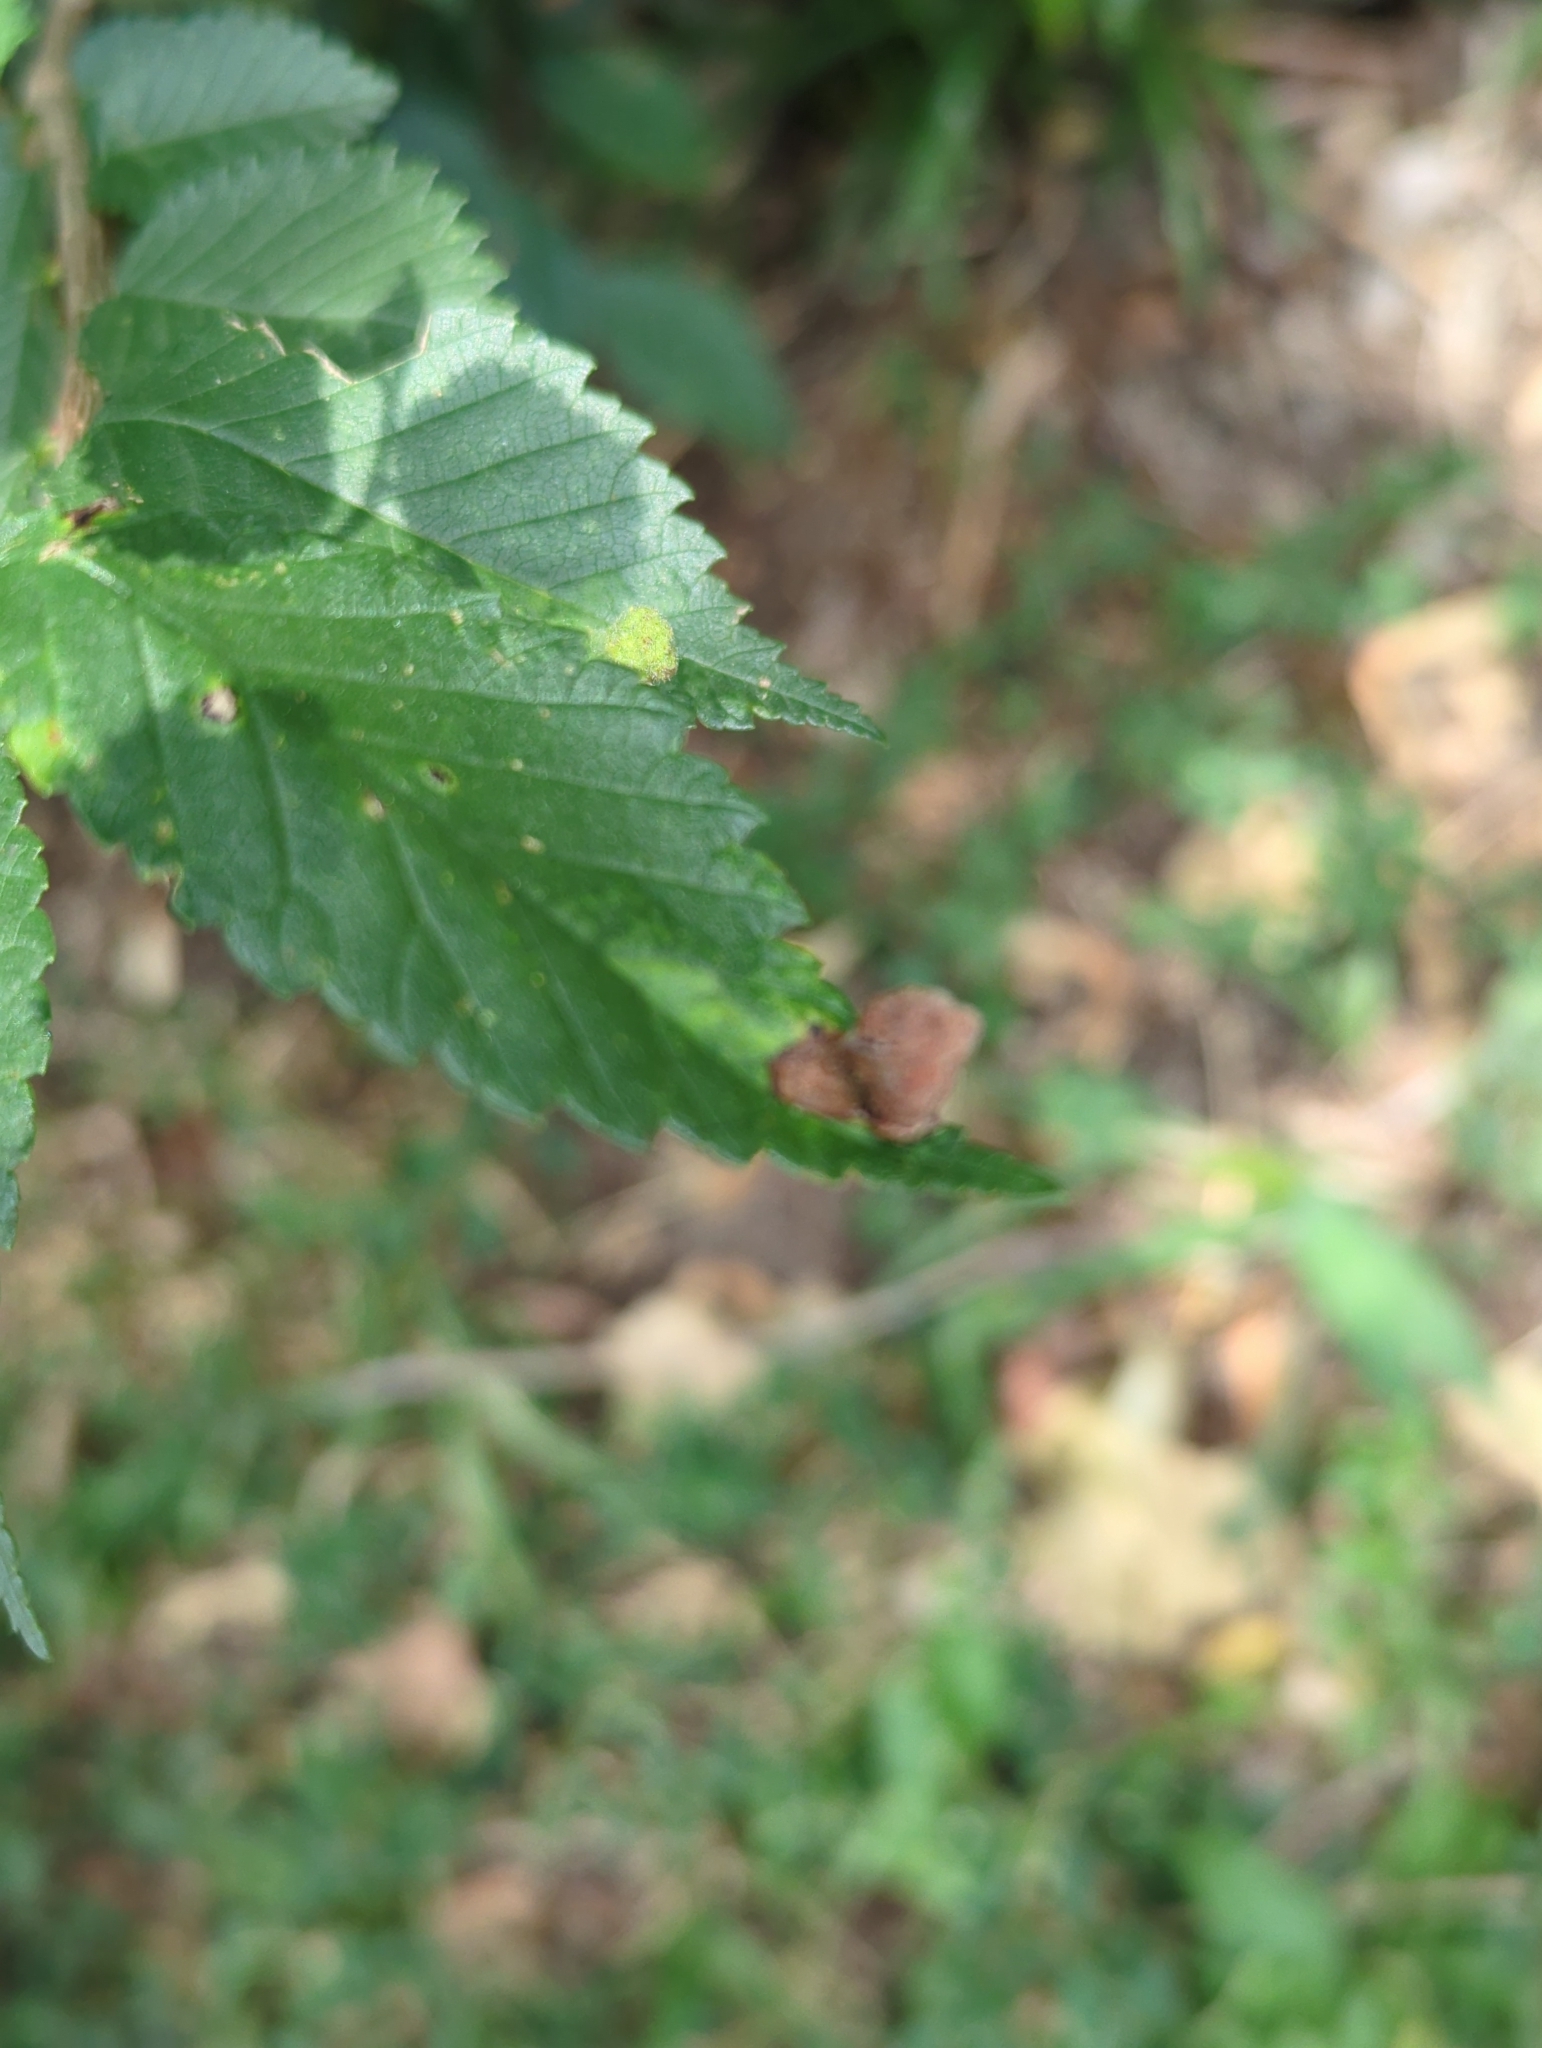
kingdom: Animalia
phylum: Arthropoda
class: Insecta
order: Hemiptera
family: Aphididae
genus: Tetraneura
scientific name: Tetraneura nigriabdominalis
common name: Aphid
